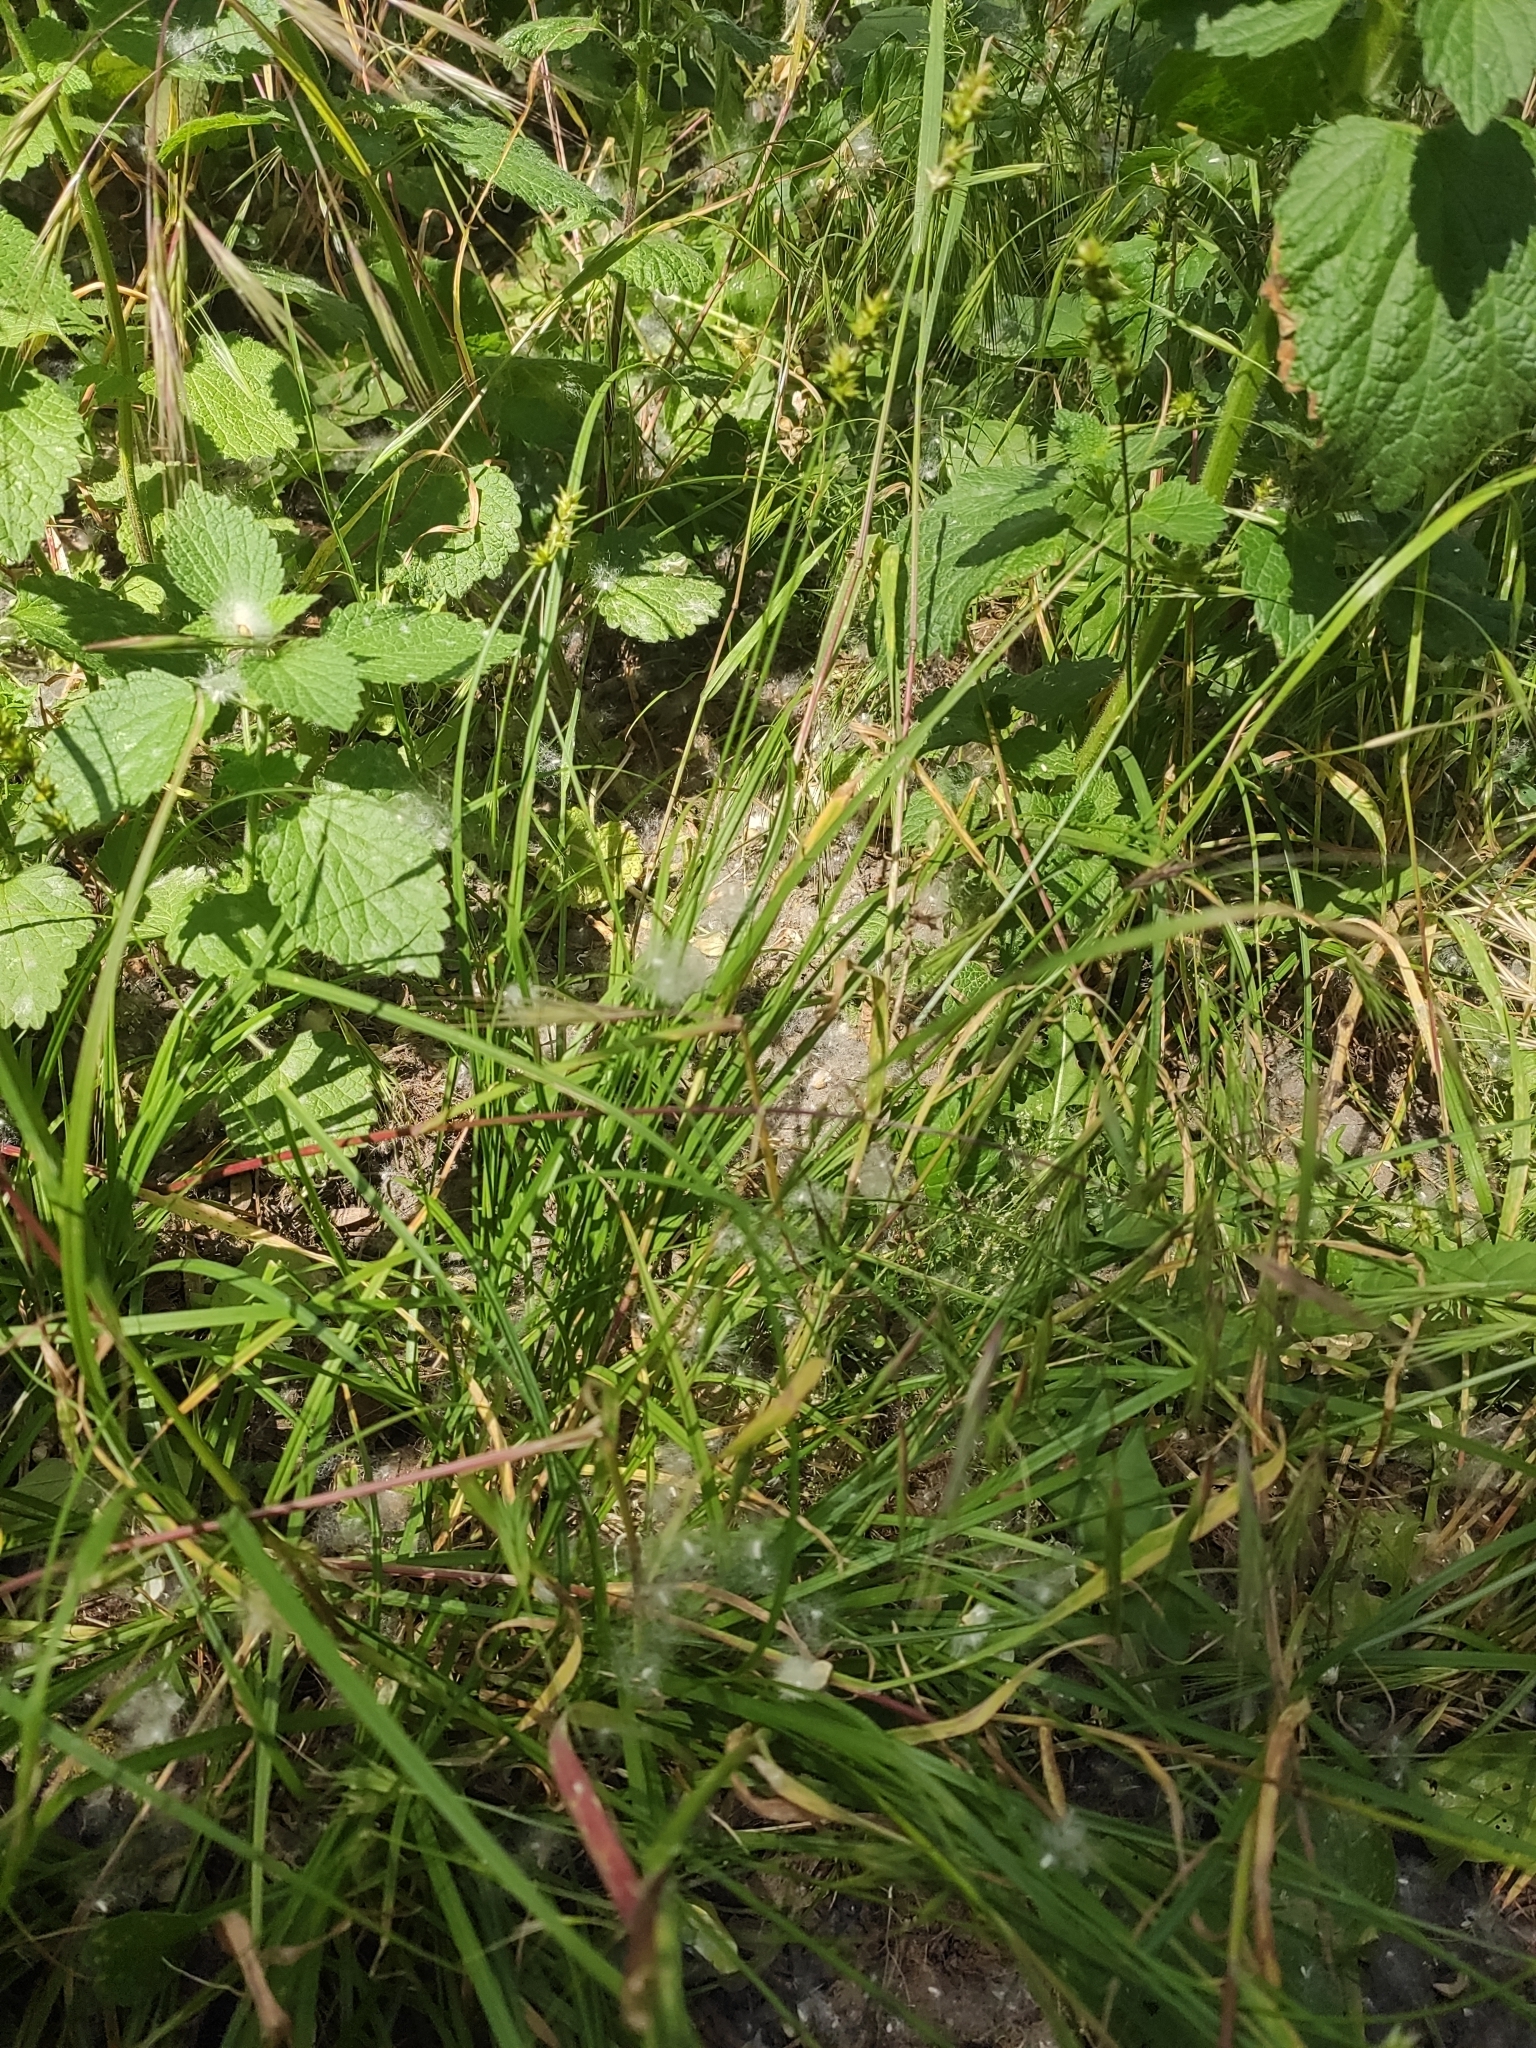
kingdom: Plantae
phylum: Tracheophyta
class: Liliopsida
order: Poales
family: Cyperaceae
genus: Carex
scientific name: Carex spicata
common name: Spiked sedge
